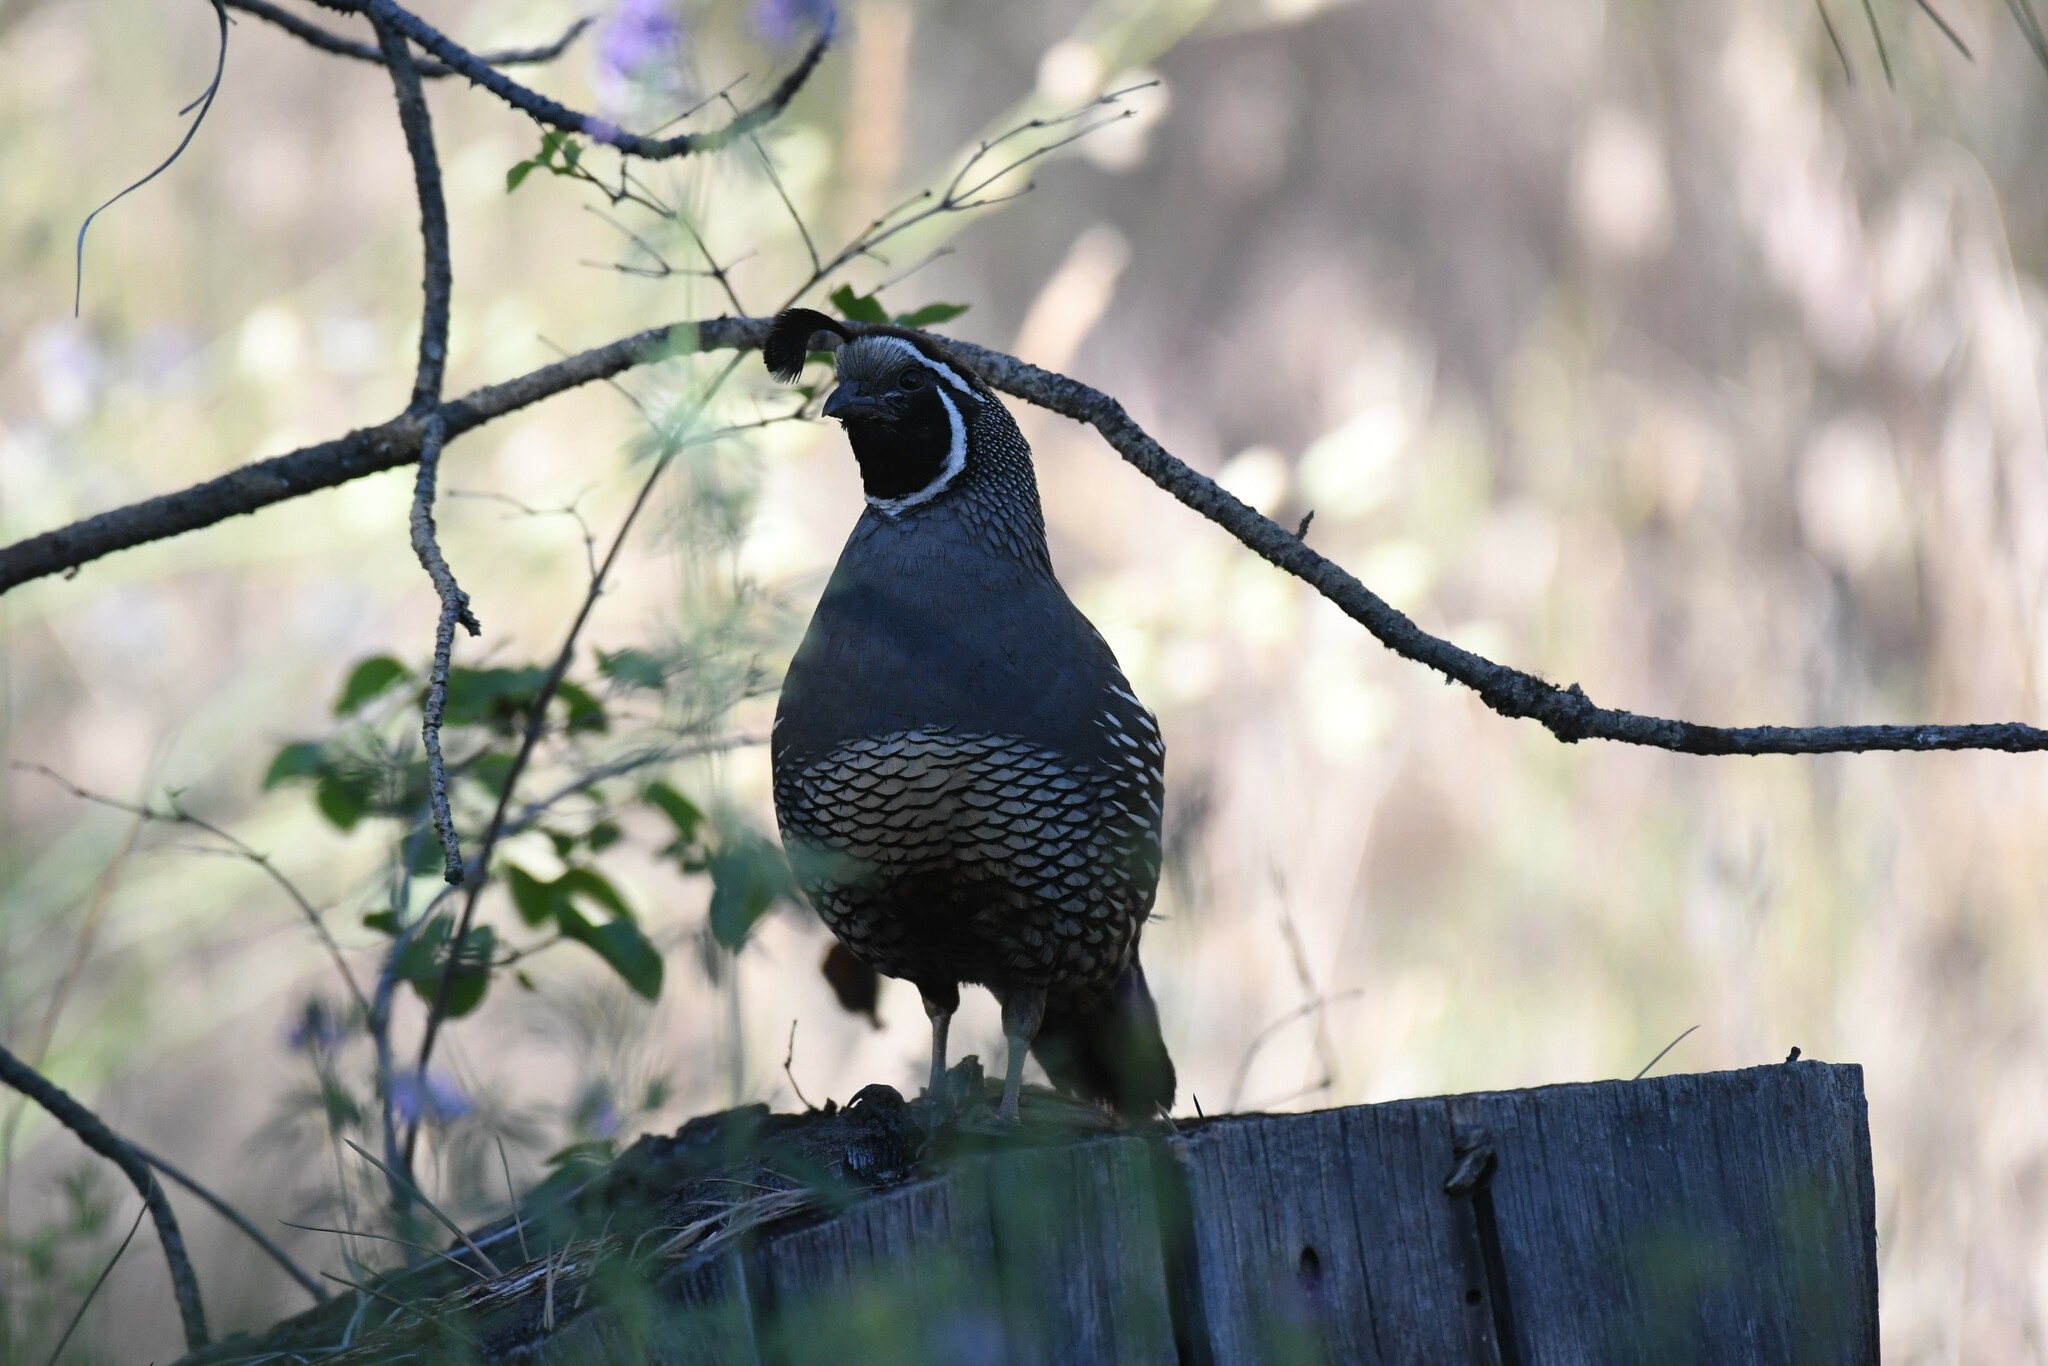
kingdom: Animalia
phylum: Chordata
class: Aves
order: Galliformes
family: Odontophoridae
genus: Callipepla
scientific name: Callipepla californica
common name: California quail
